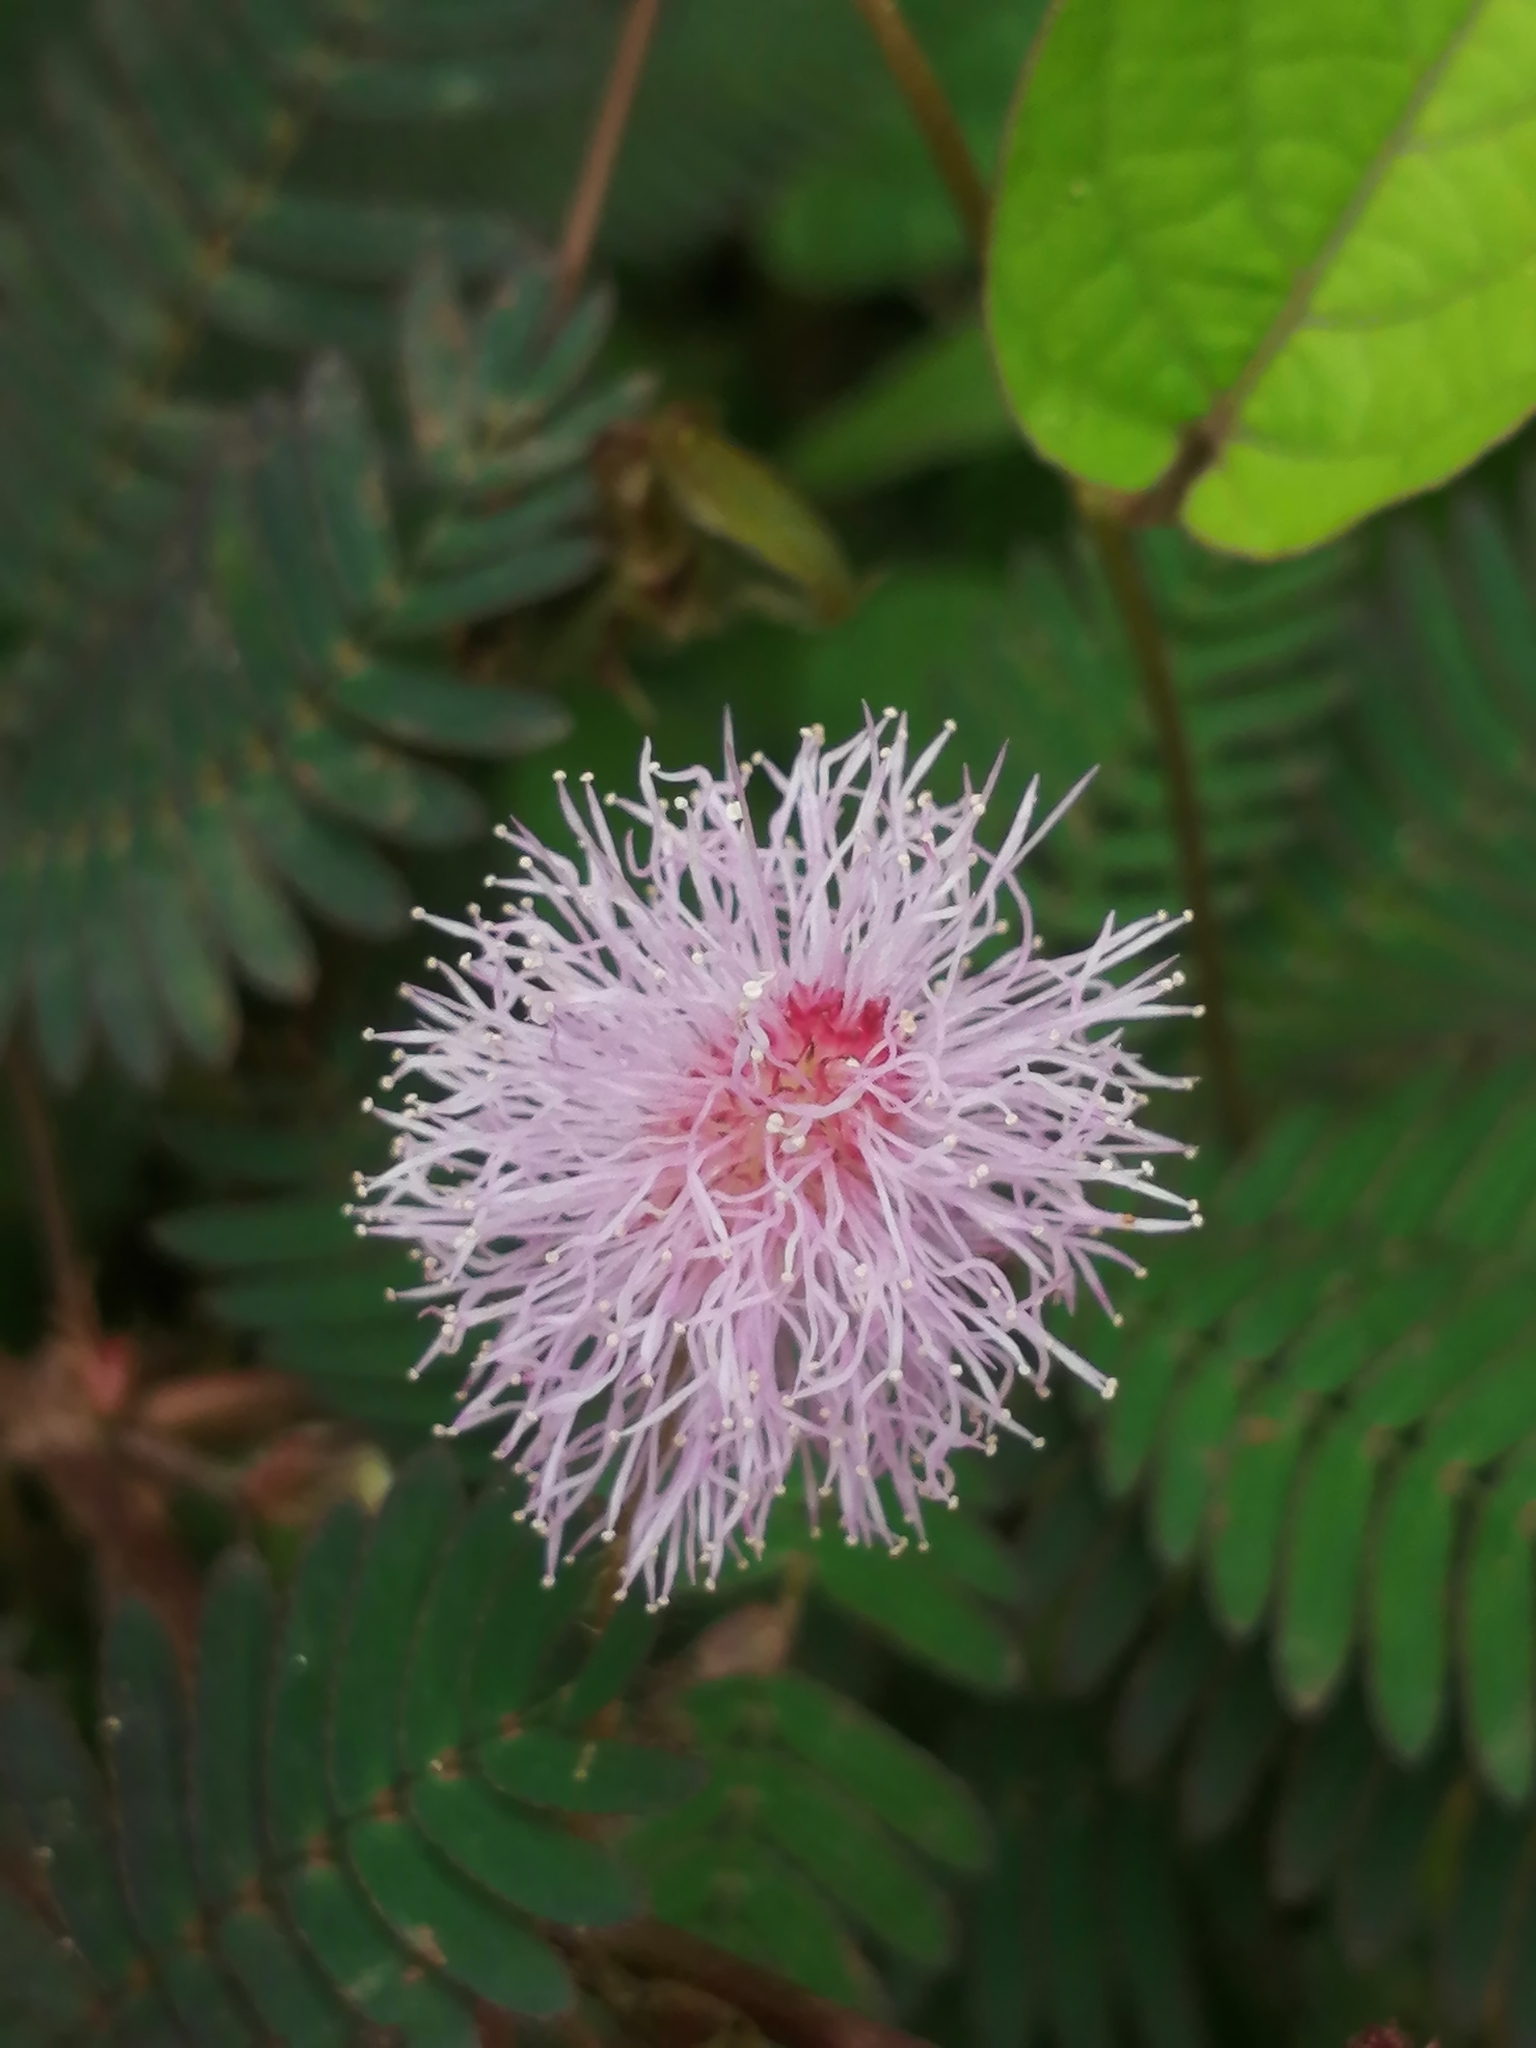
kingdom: Plantae
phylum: Tracheophyta
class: Magnoliopsida
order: Fabales
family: Fabaceae
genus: Mimosa
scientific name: Mimosa pudica
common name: Sensitive plant
